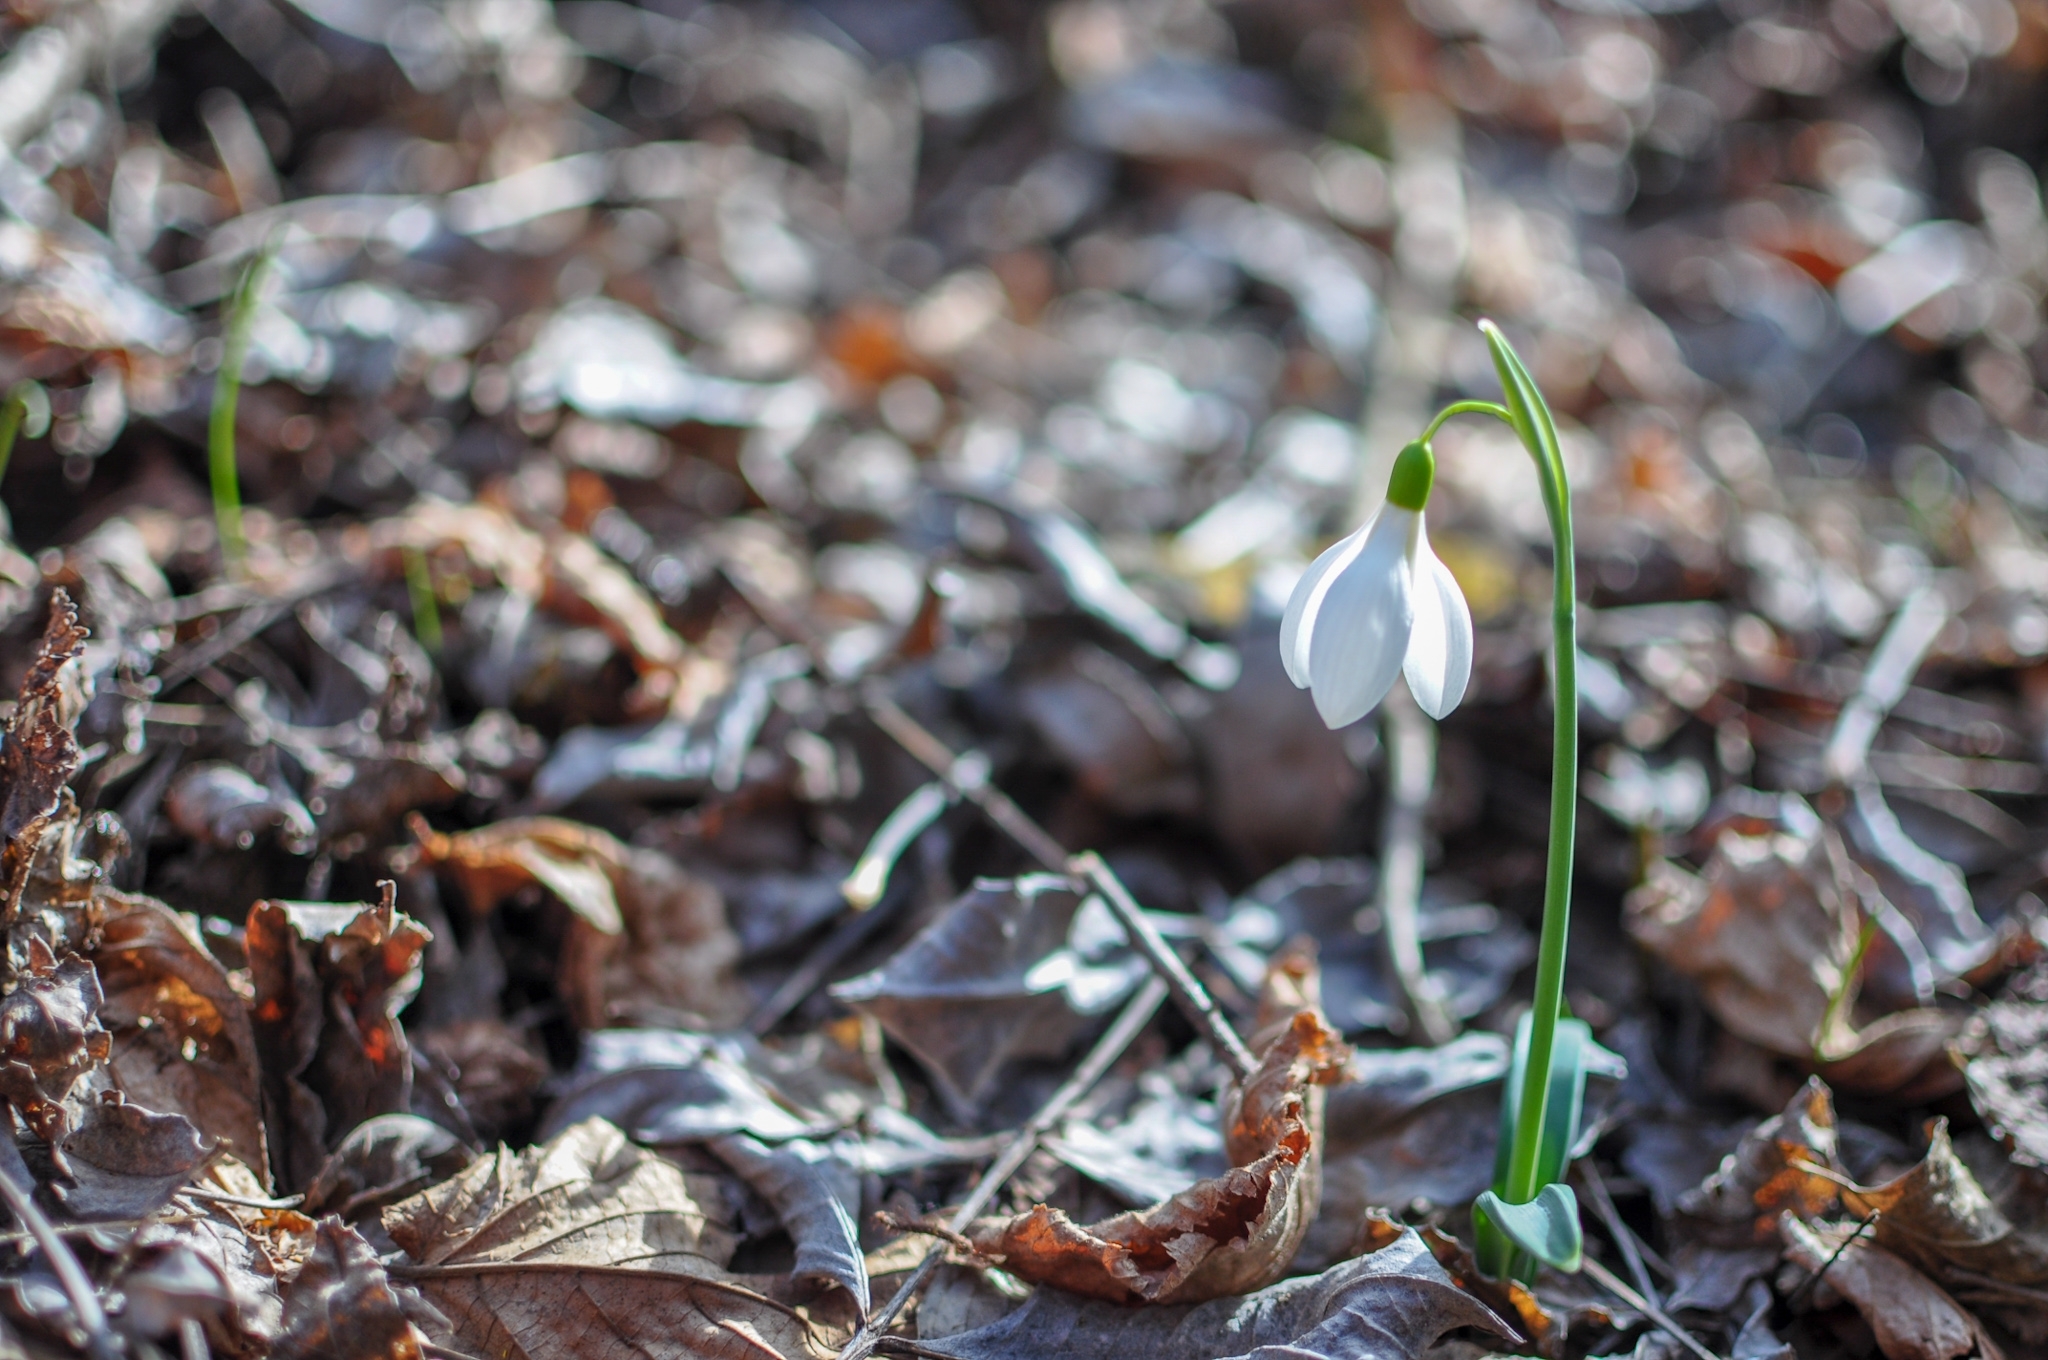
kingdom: Plantae
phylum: Tracheophyta
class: Liliopsida
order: Asparagales
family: Amaryllidaceae
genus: Galanthus
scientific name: Galanthus plicatus
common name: Pleated snowdrop
